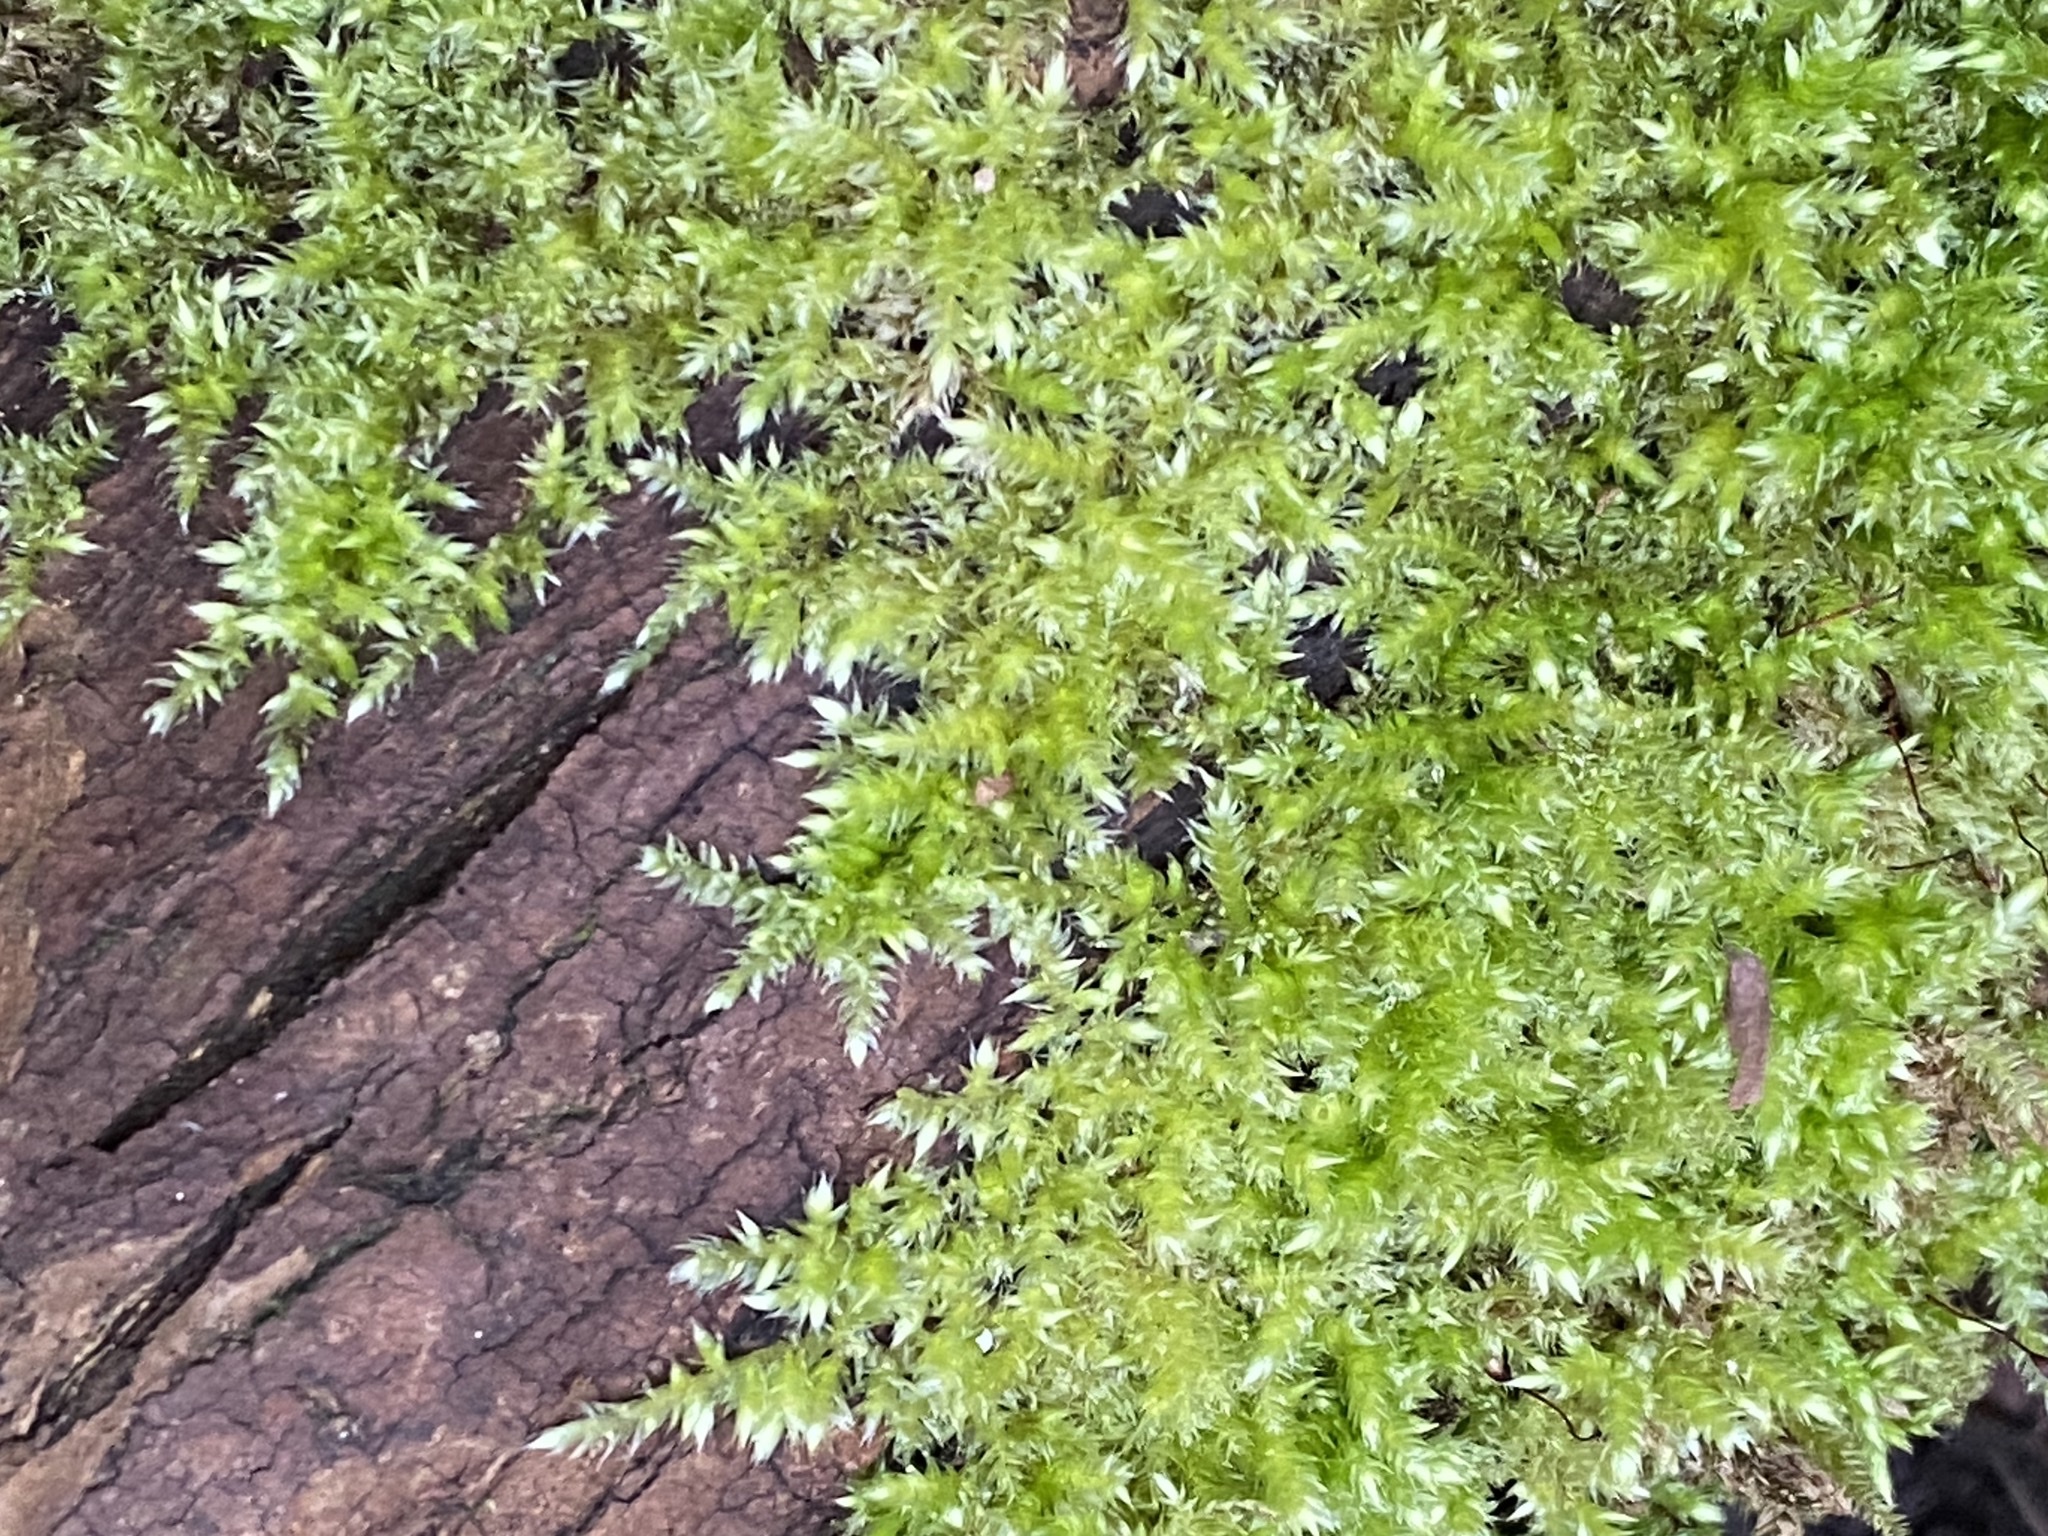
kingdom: Plantae
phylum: Bryophyta
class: Bryopsida
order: Hypnales
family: Brachytheciaceae
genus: Brachythecium
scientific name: Brachythecium rutabulum
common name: Rough-stalked feather-moss
